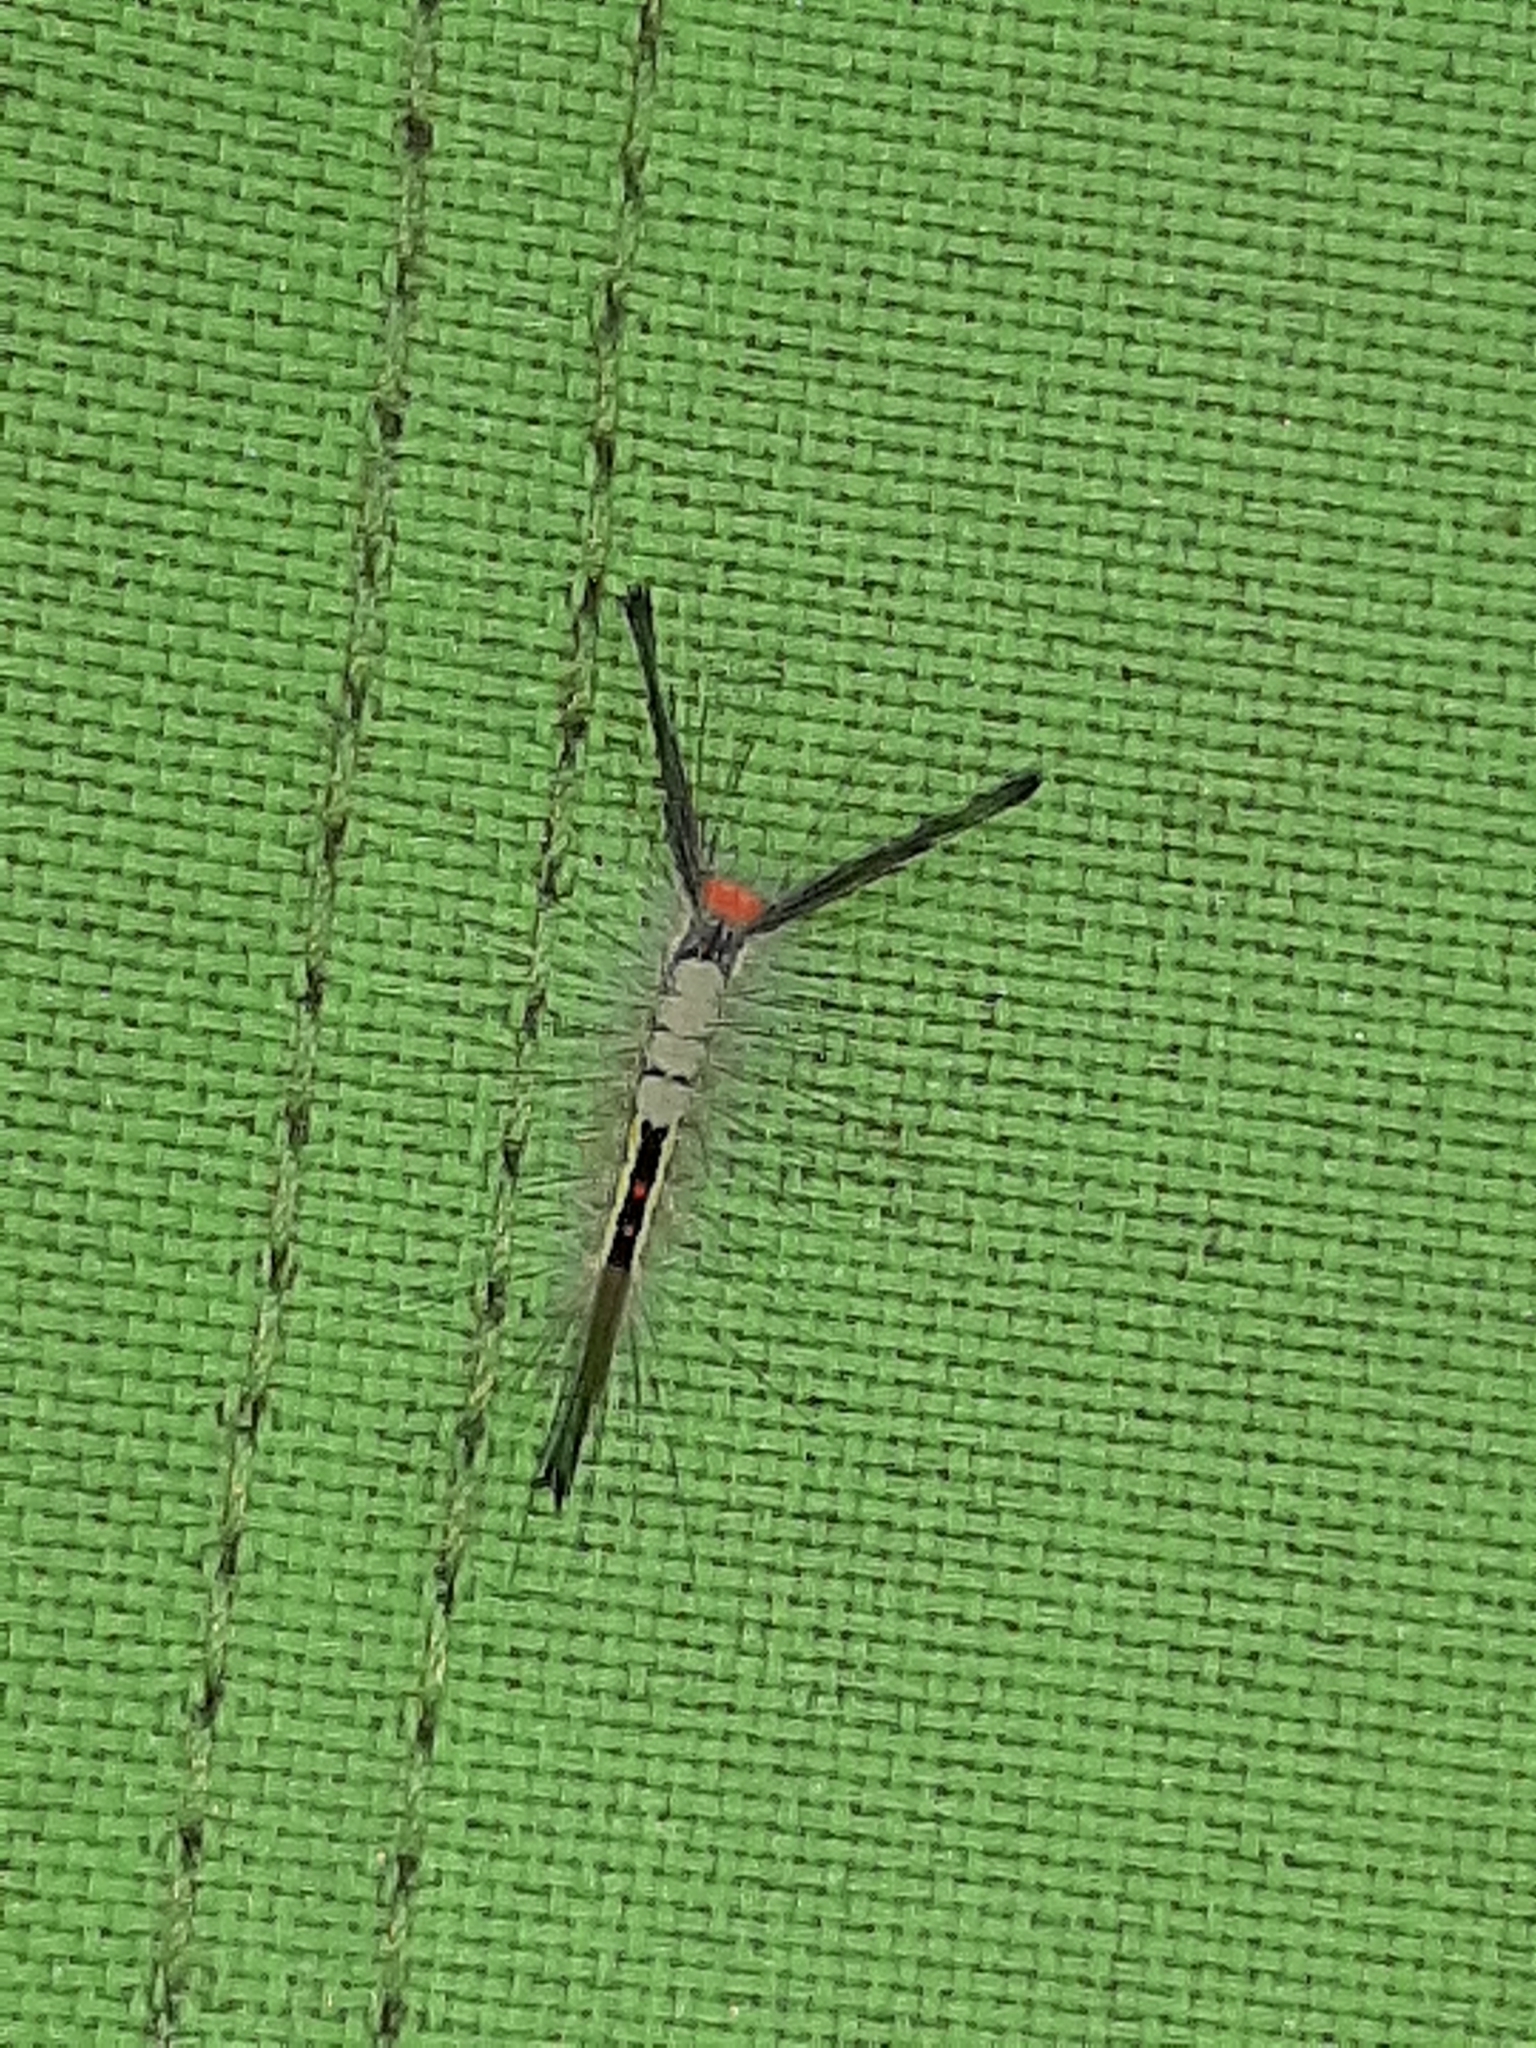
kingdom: Animalia
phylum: Arthropoda
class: Insecta
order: Lepidoptera
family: Erebidae
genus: Orgyia
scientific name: Orgyia leucostigma
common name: White-marked tussock moth
